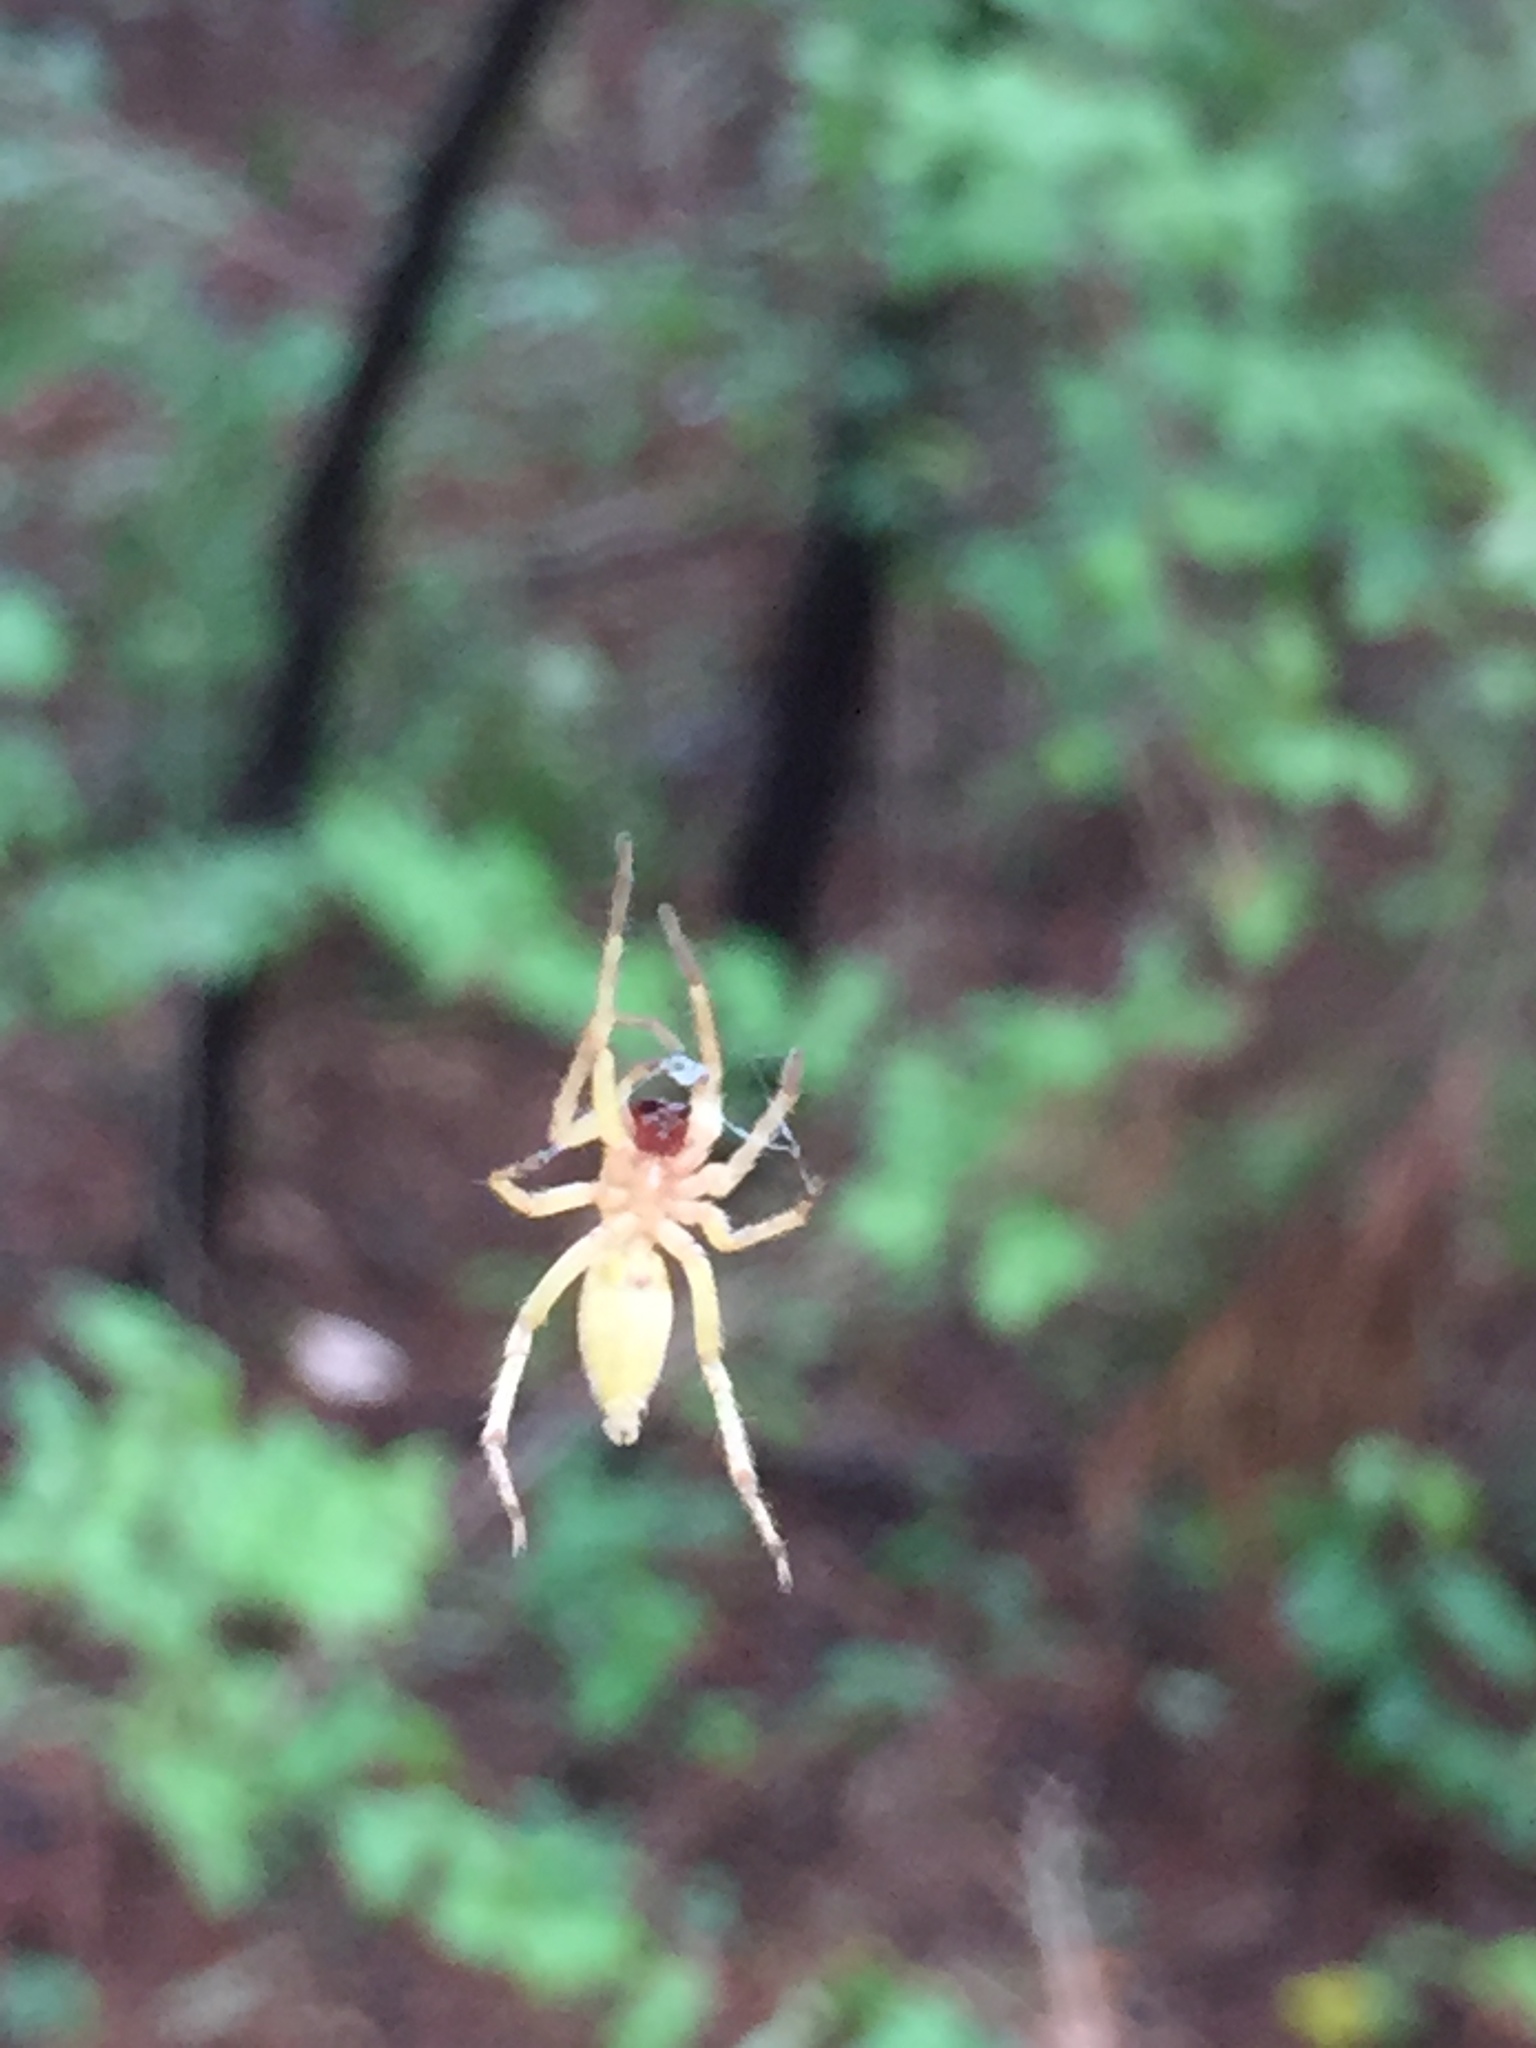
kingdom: Animalia
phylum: Arthropoda
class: Arachnida
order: Araneae
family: Anyphaenidae
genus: Hibana
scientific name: Hibana gracilis
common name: Garden ghost spider
